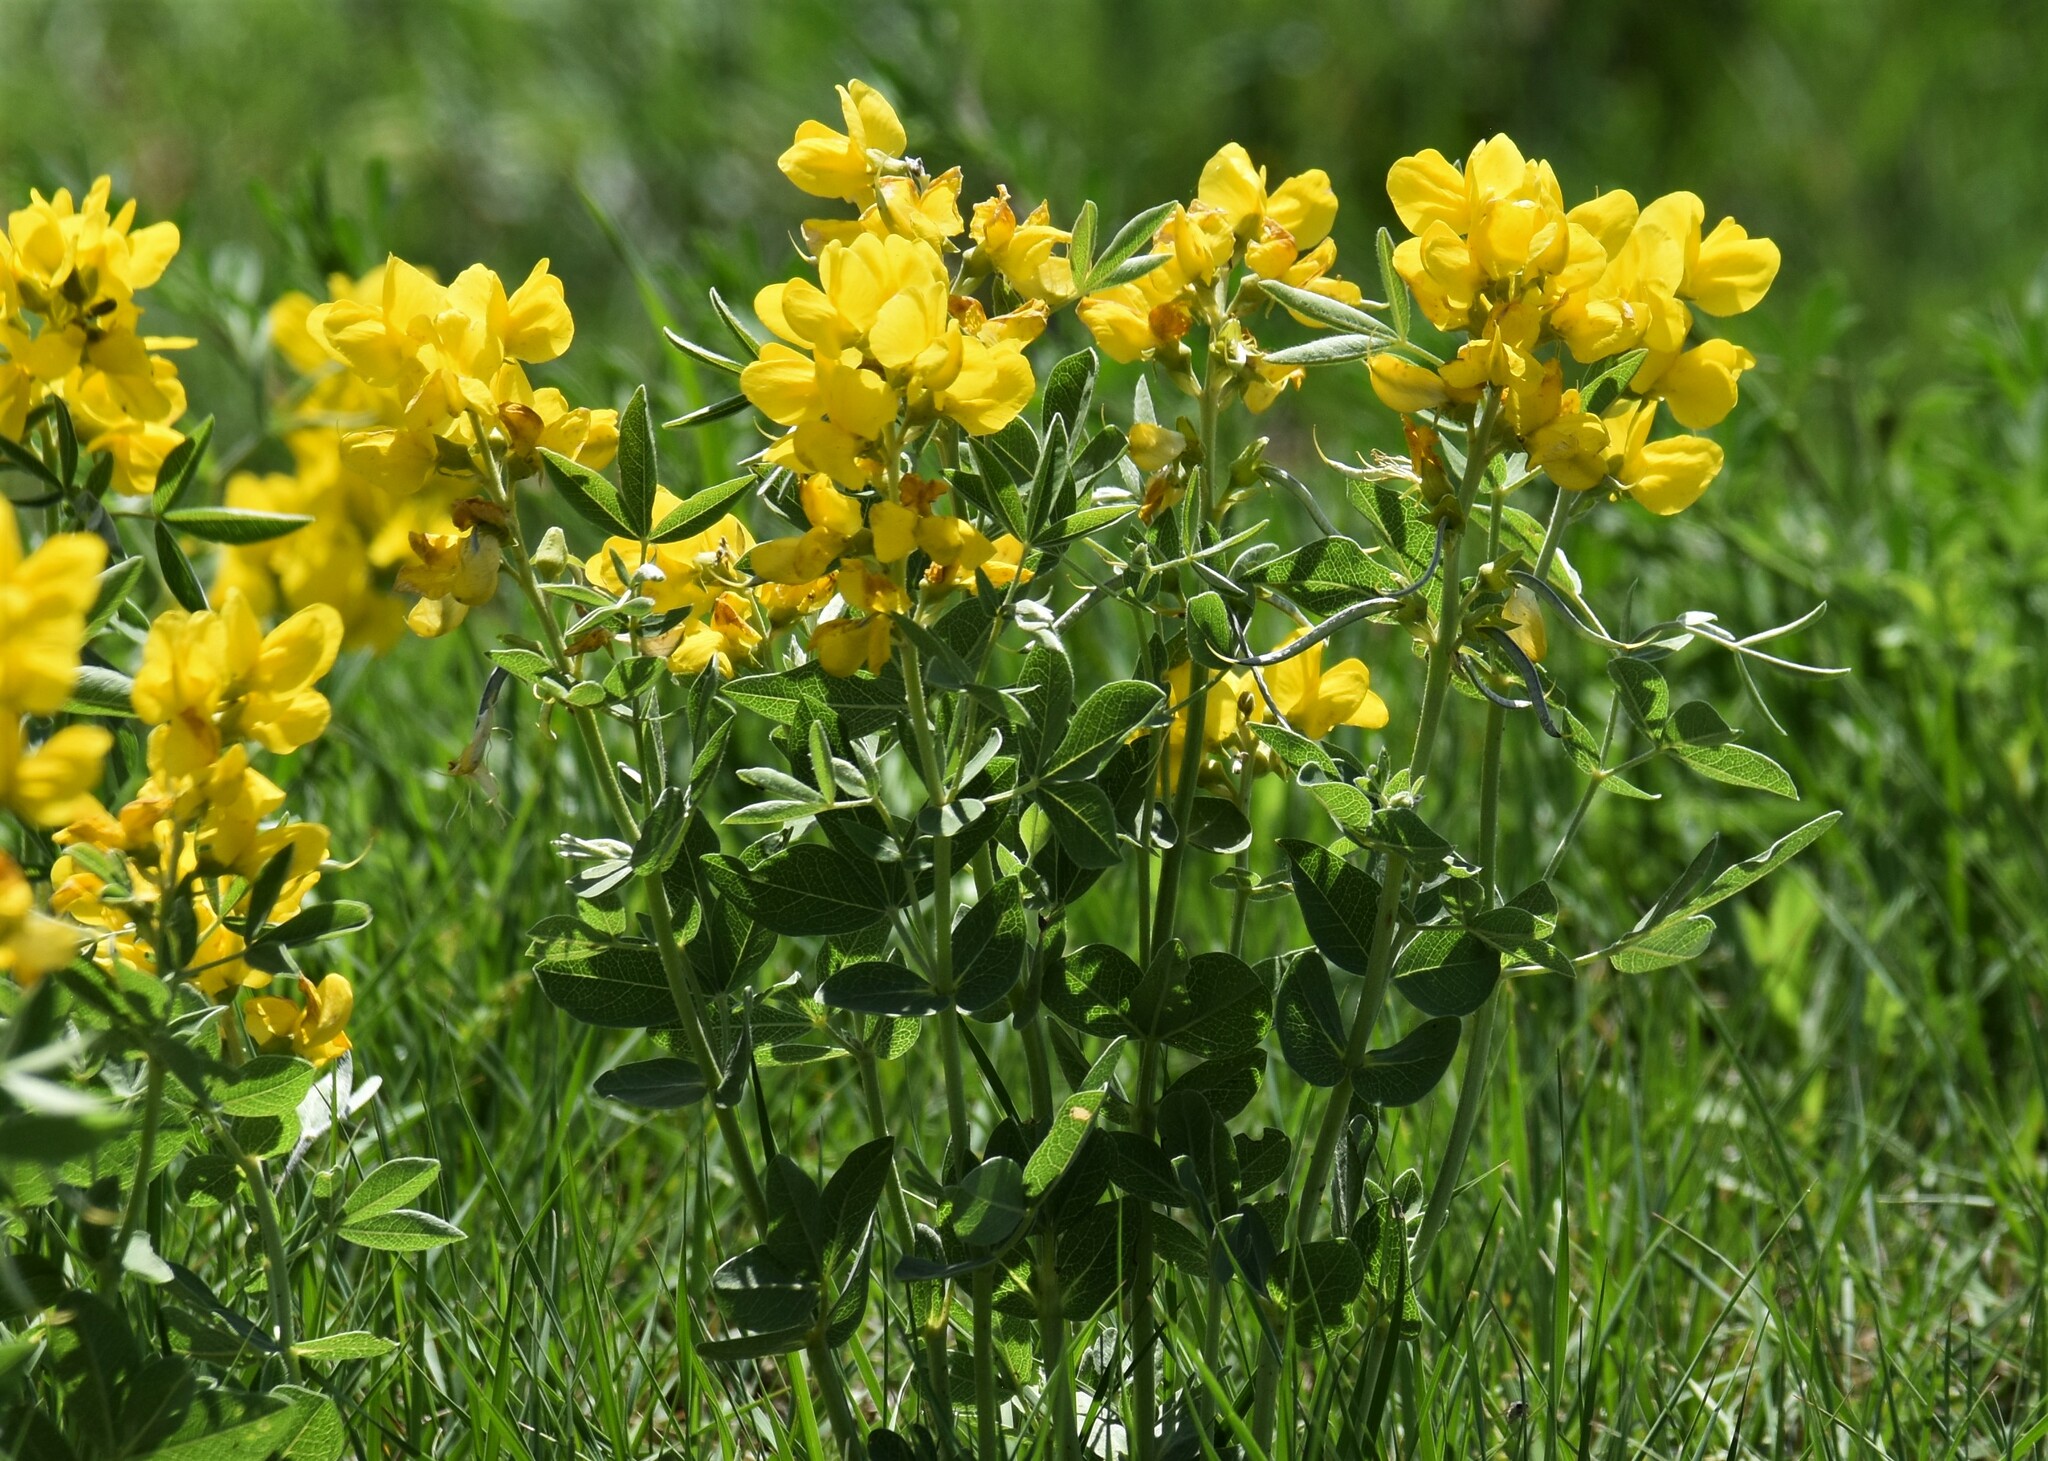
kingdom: Plantae
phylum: Tracheophyta
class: Magnoliopsida
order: Fabales
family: Fabaceae
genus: Thermopsis
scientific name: Thermopsis rhombifolia
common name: Circle-pod-pea
